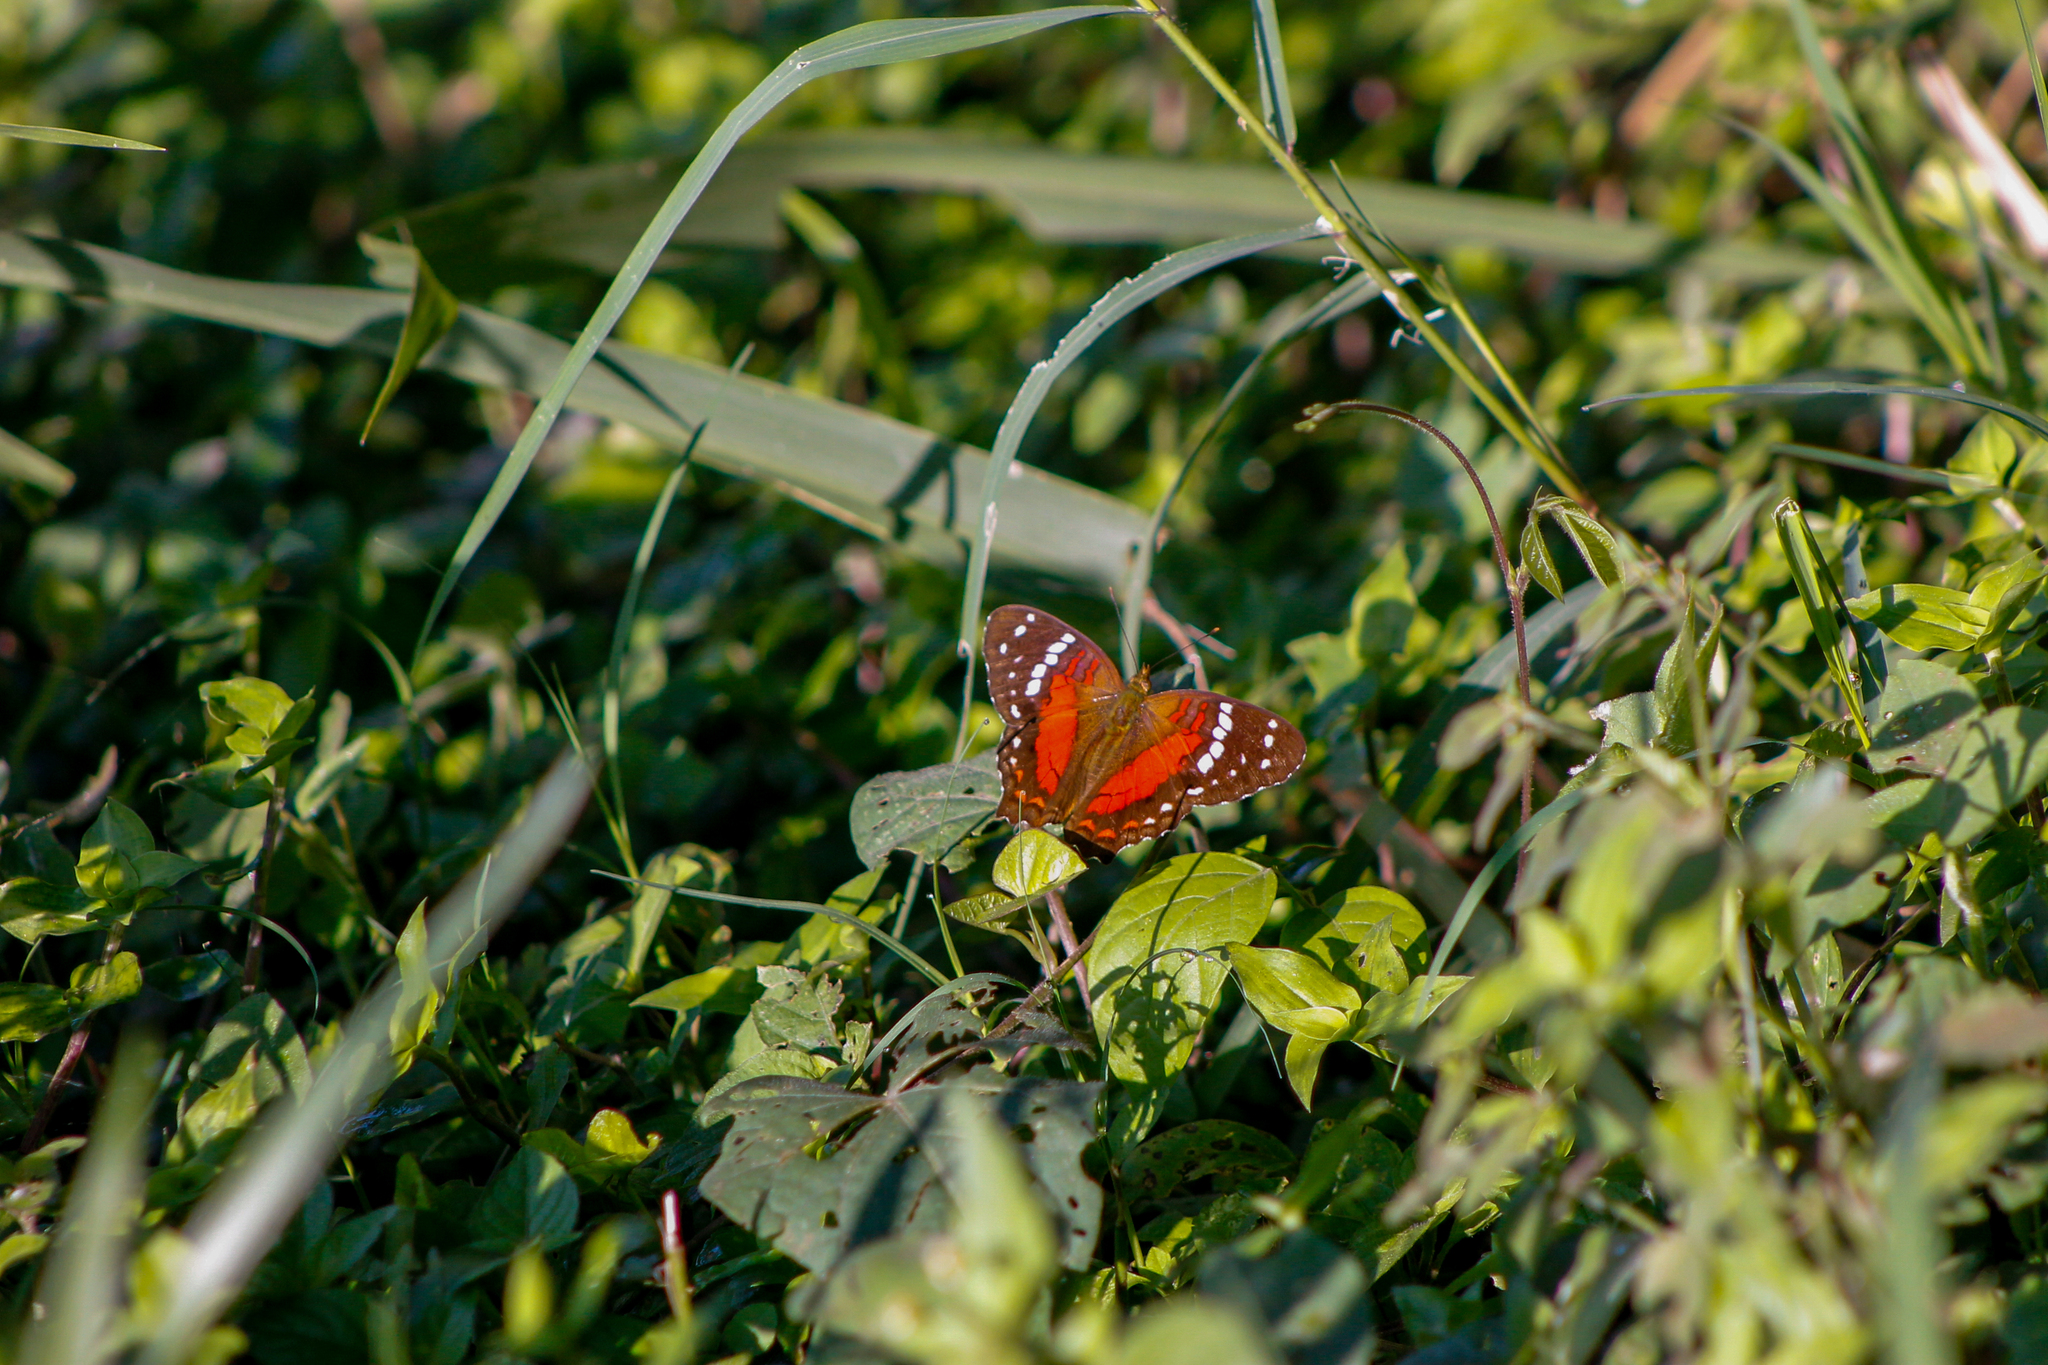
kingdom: Animalia
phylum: Arthropoda
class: Insecta
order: Lepidoptera
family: Nymphalidae
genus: Anartia
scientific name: Anartia amathea
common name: Red peacock
